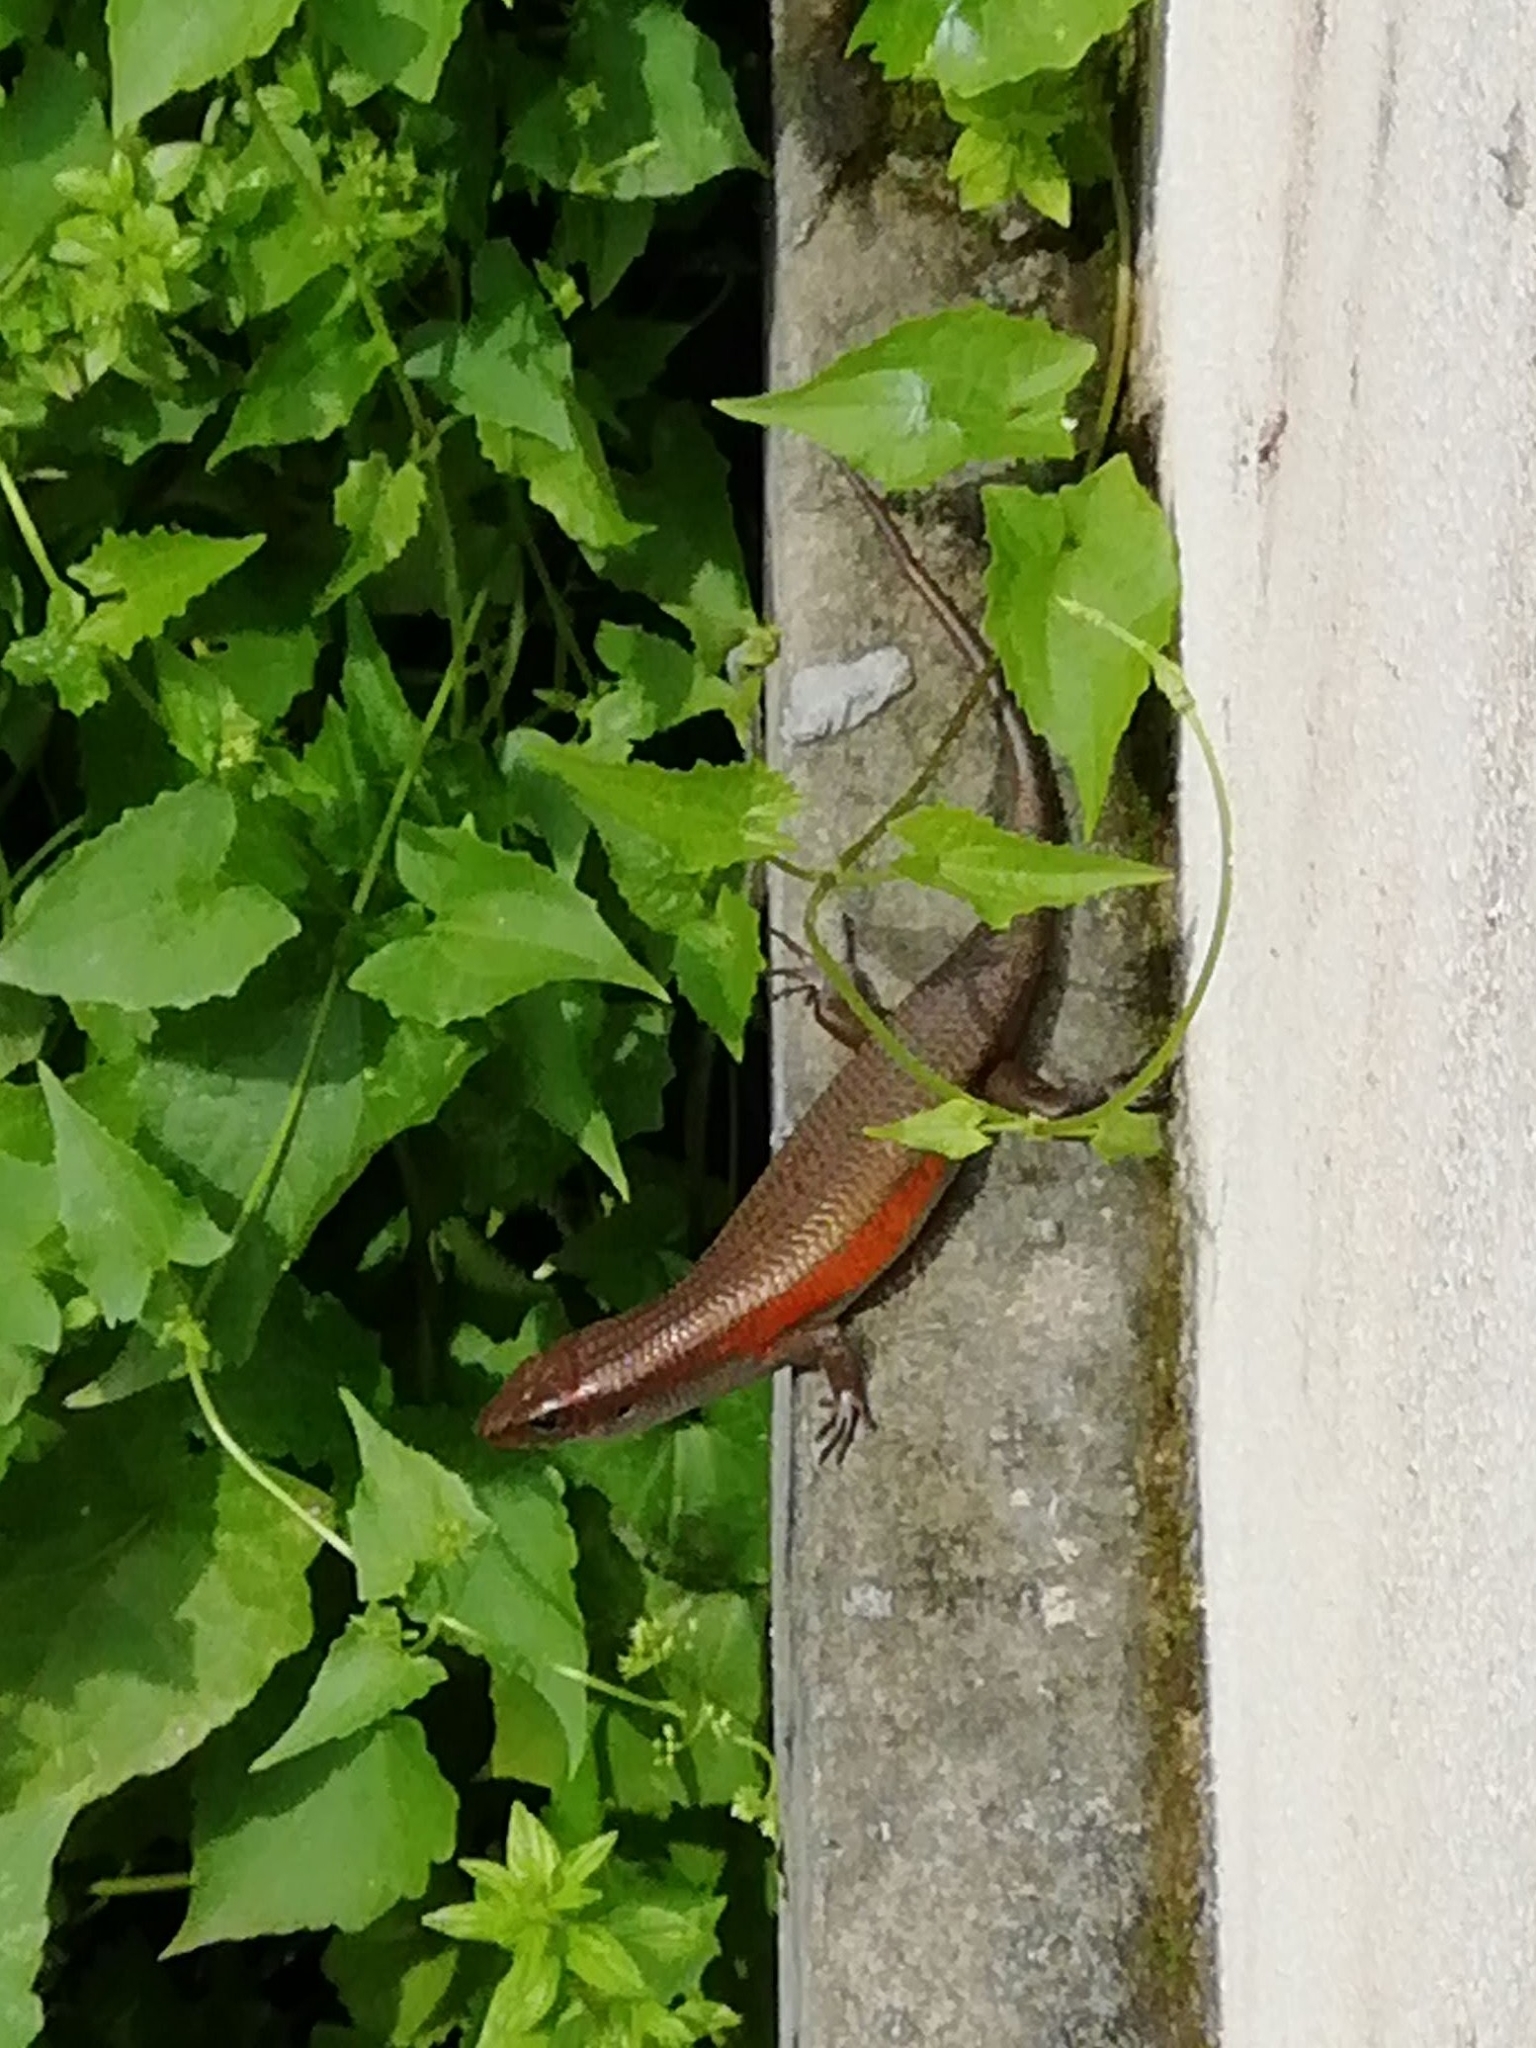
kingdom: Animalia
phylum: Chordata
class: Squamata
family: Scincidae
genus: Eutropis
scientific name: Eutropis multifasciata
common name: Common mabuya
